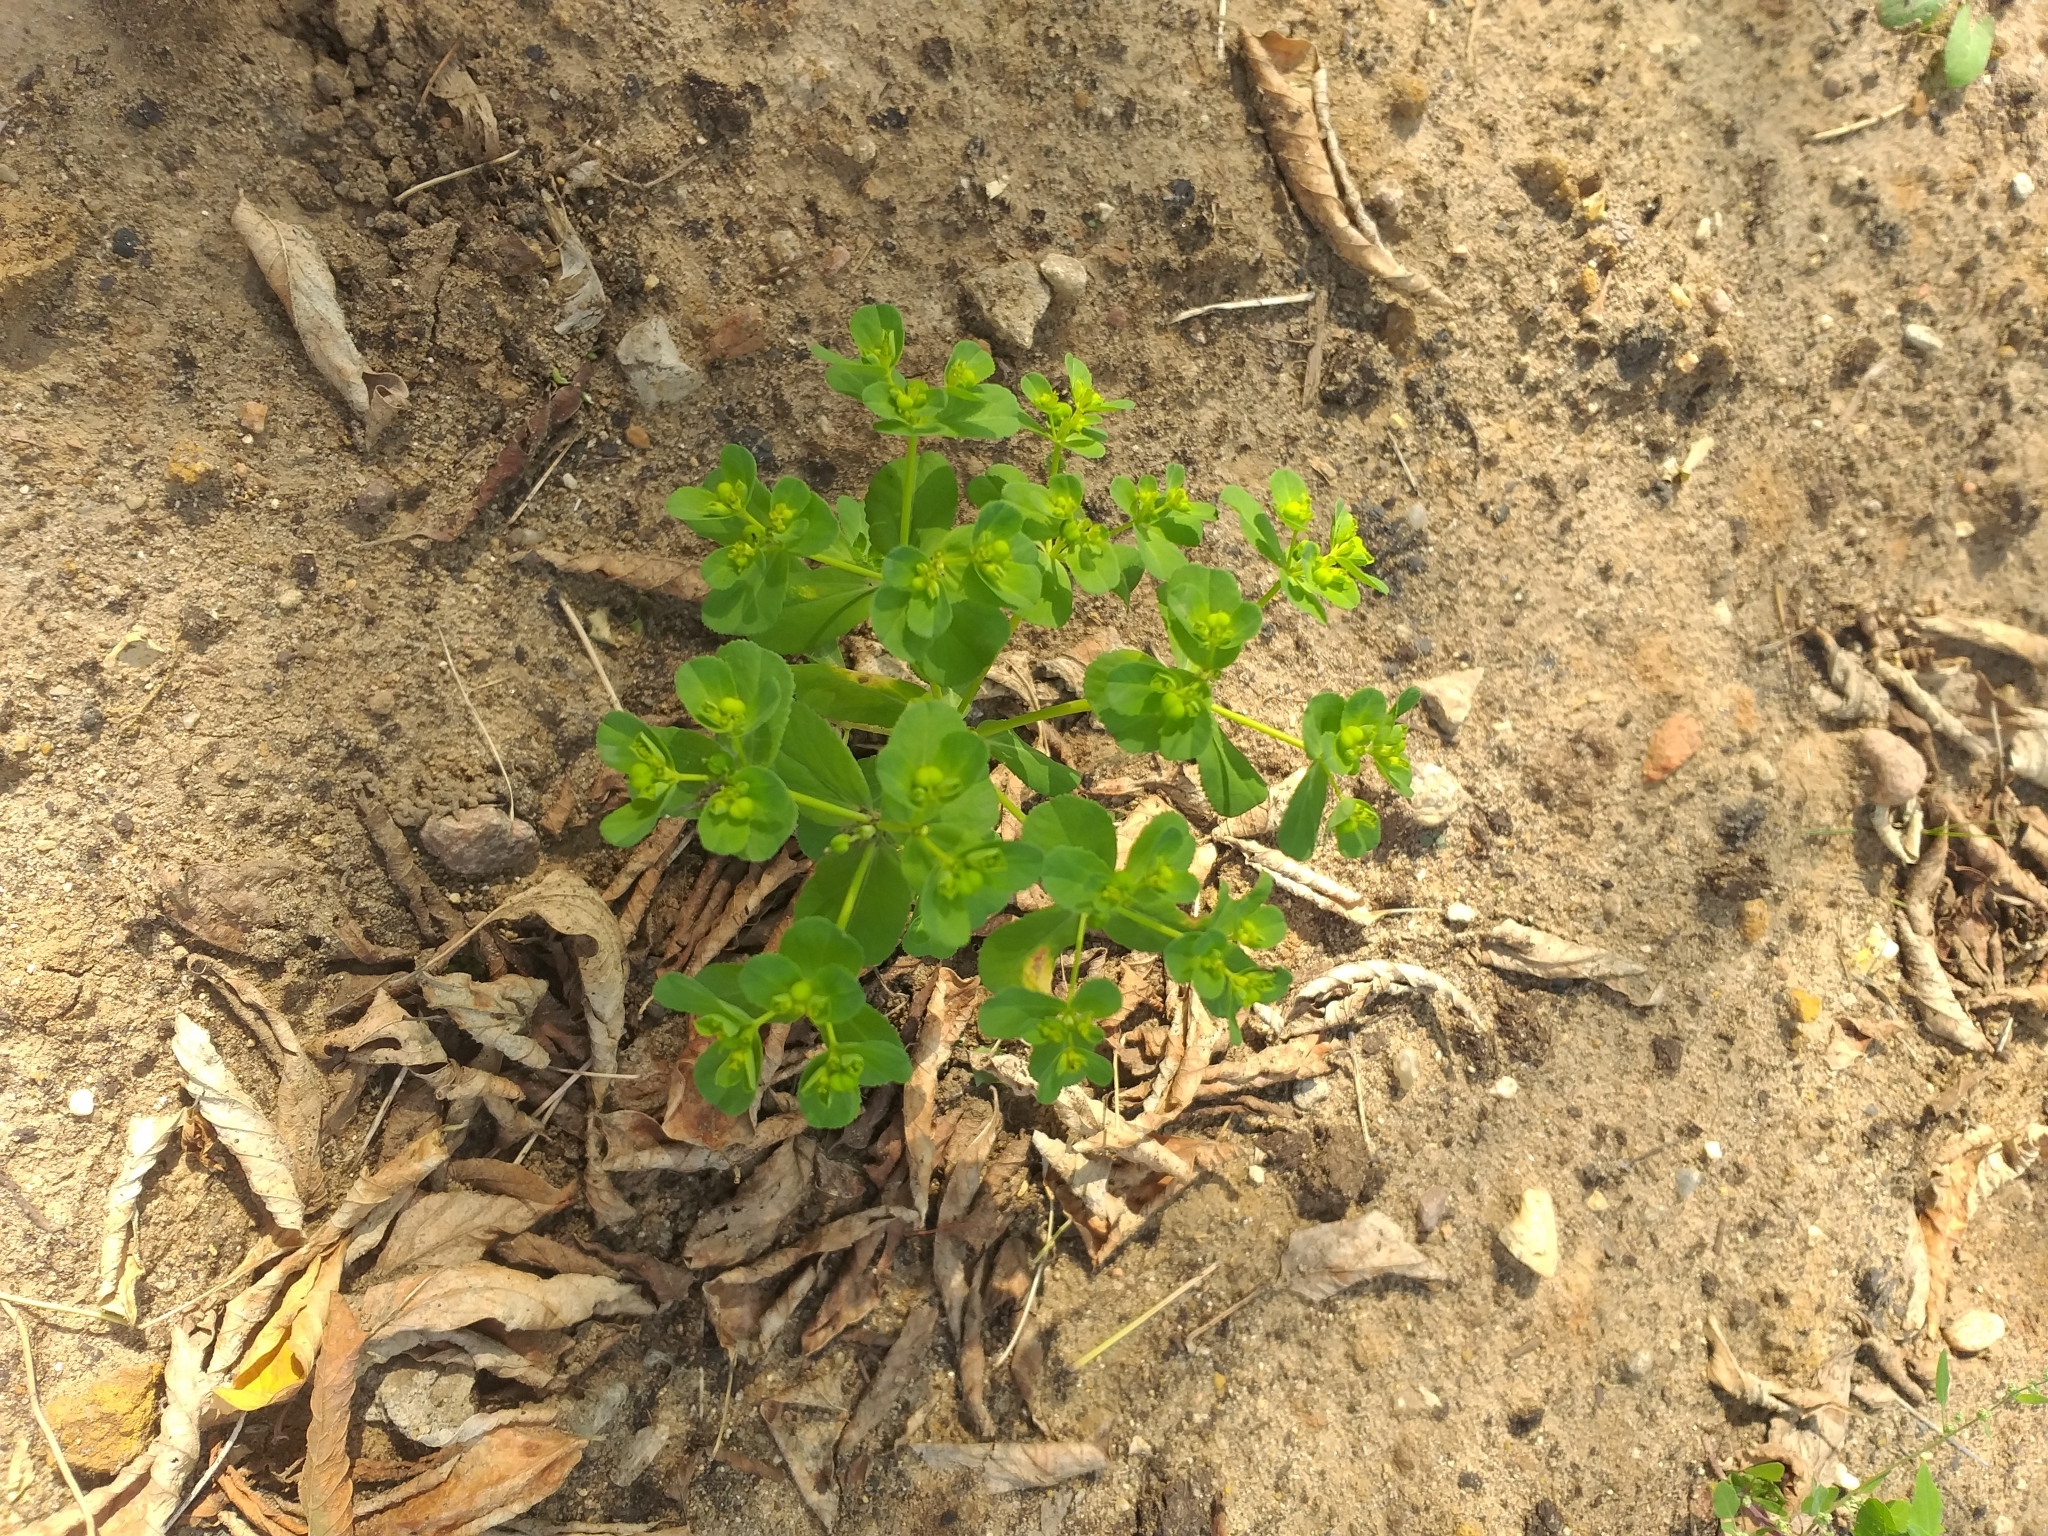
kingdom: Plantae
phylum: Tracheophyta
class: Magnoliopsida
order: Malpighiales
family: Euphorbiaceae
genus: Euphorbia
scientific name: Euphorbia helioscopia
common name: Sun spurge
